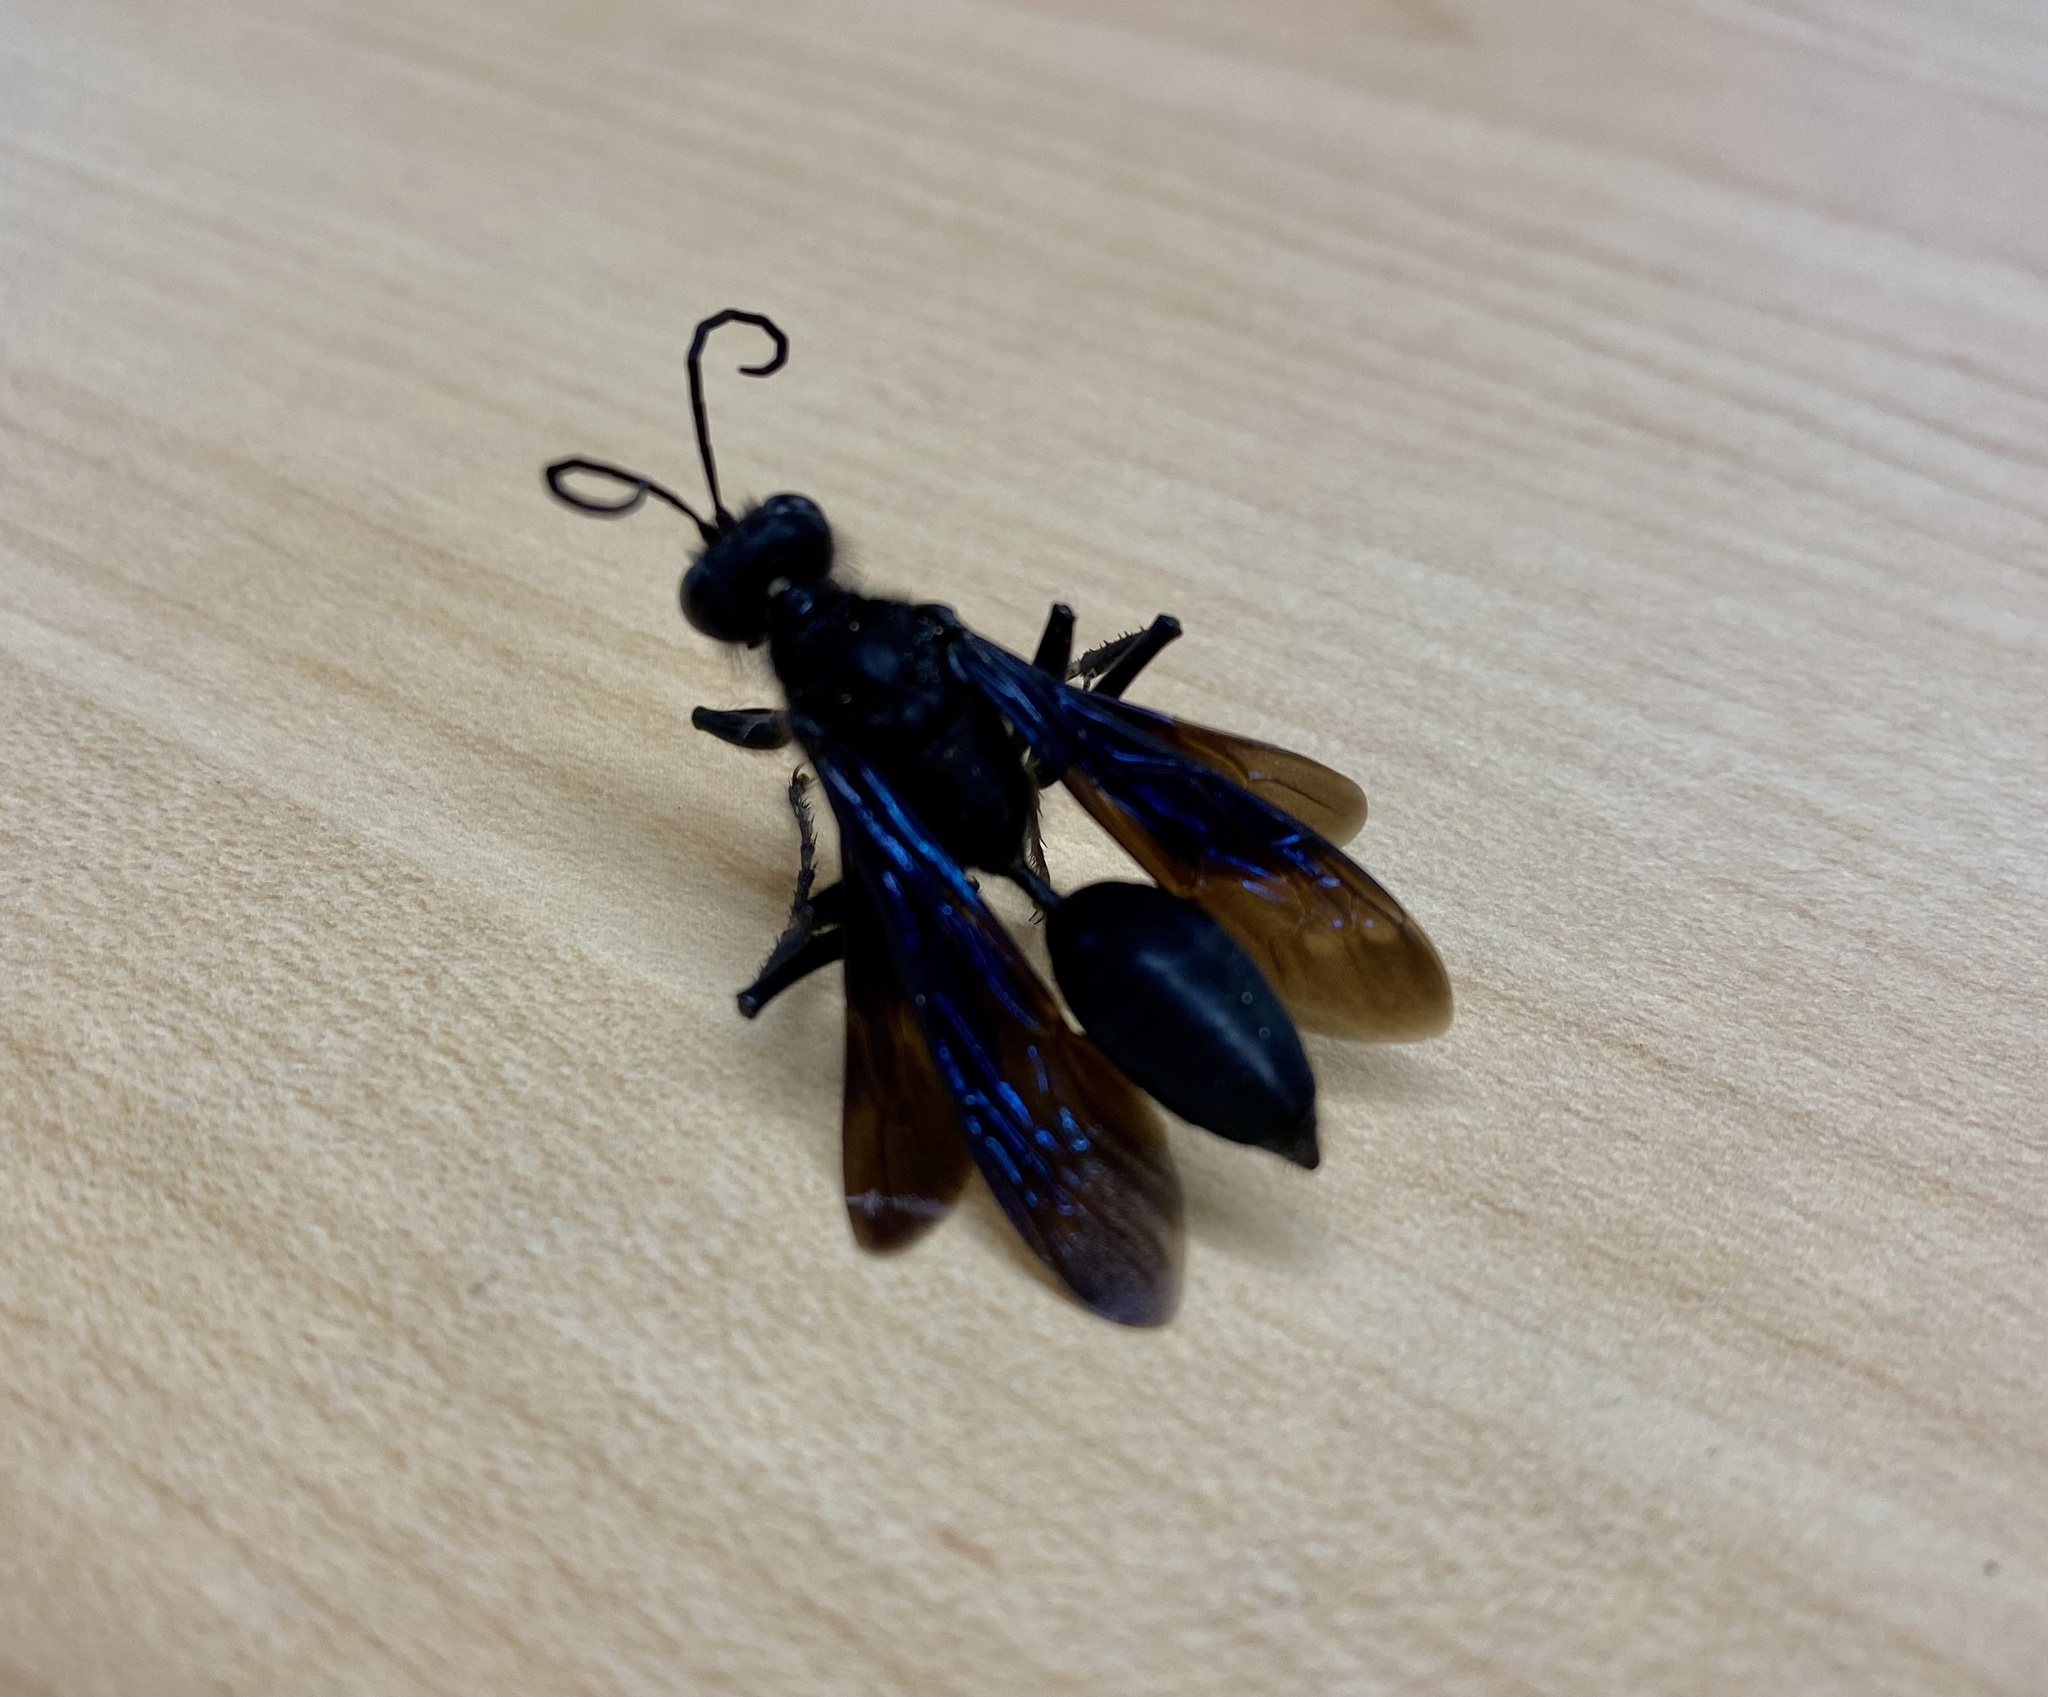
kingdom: Animalia
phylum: Arthropoda
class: Insecta
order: Hymenoptera
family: Sphecidae
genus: Sphex
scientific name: Sphex pensylvanicus
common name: Great black digger wasp
